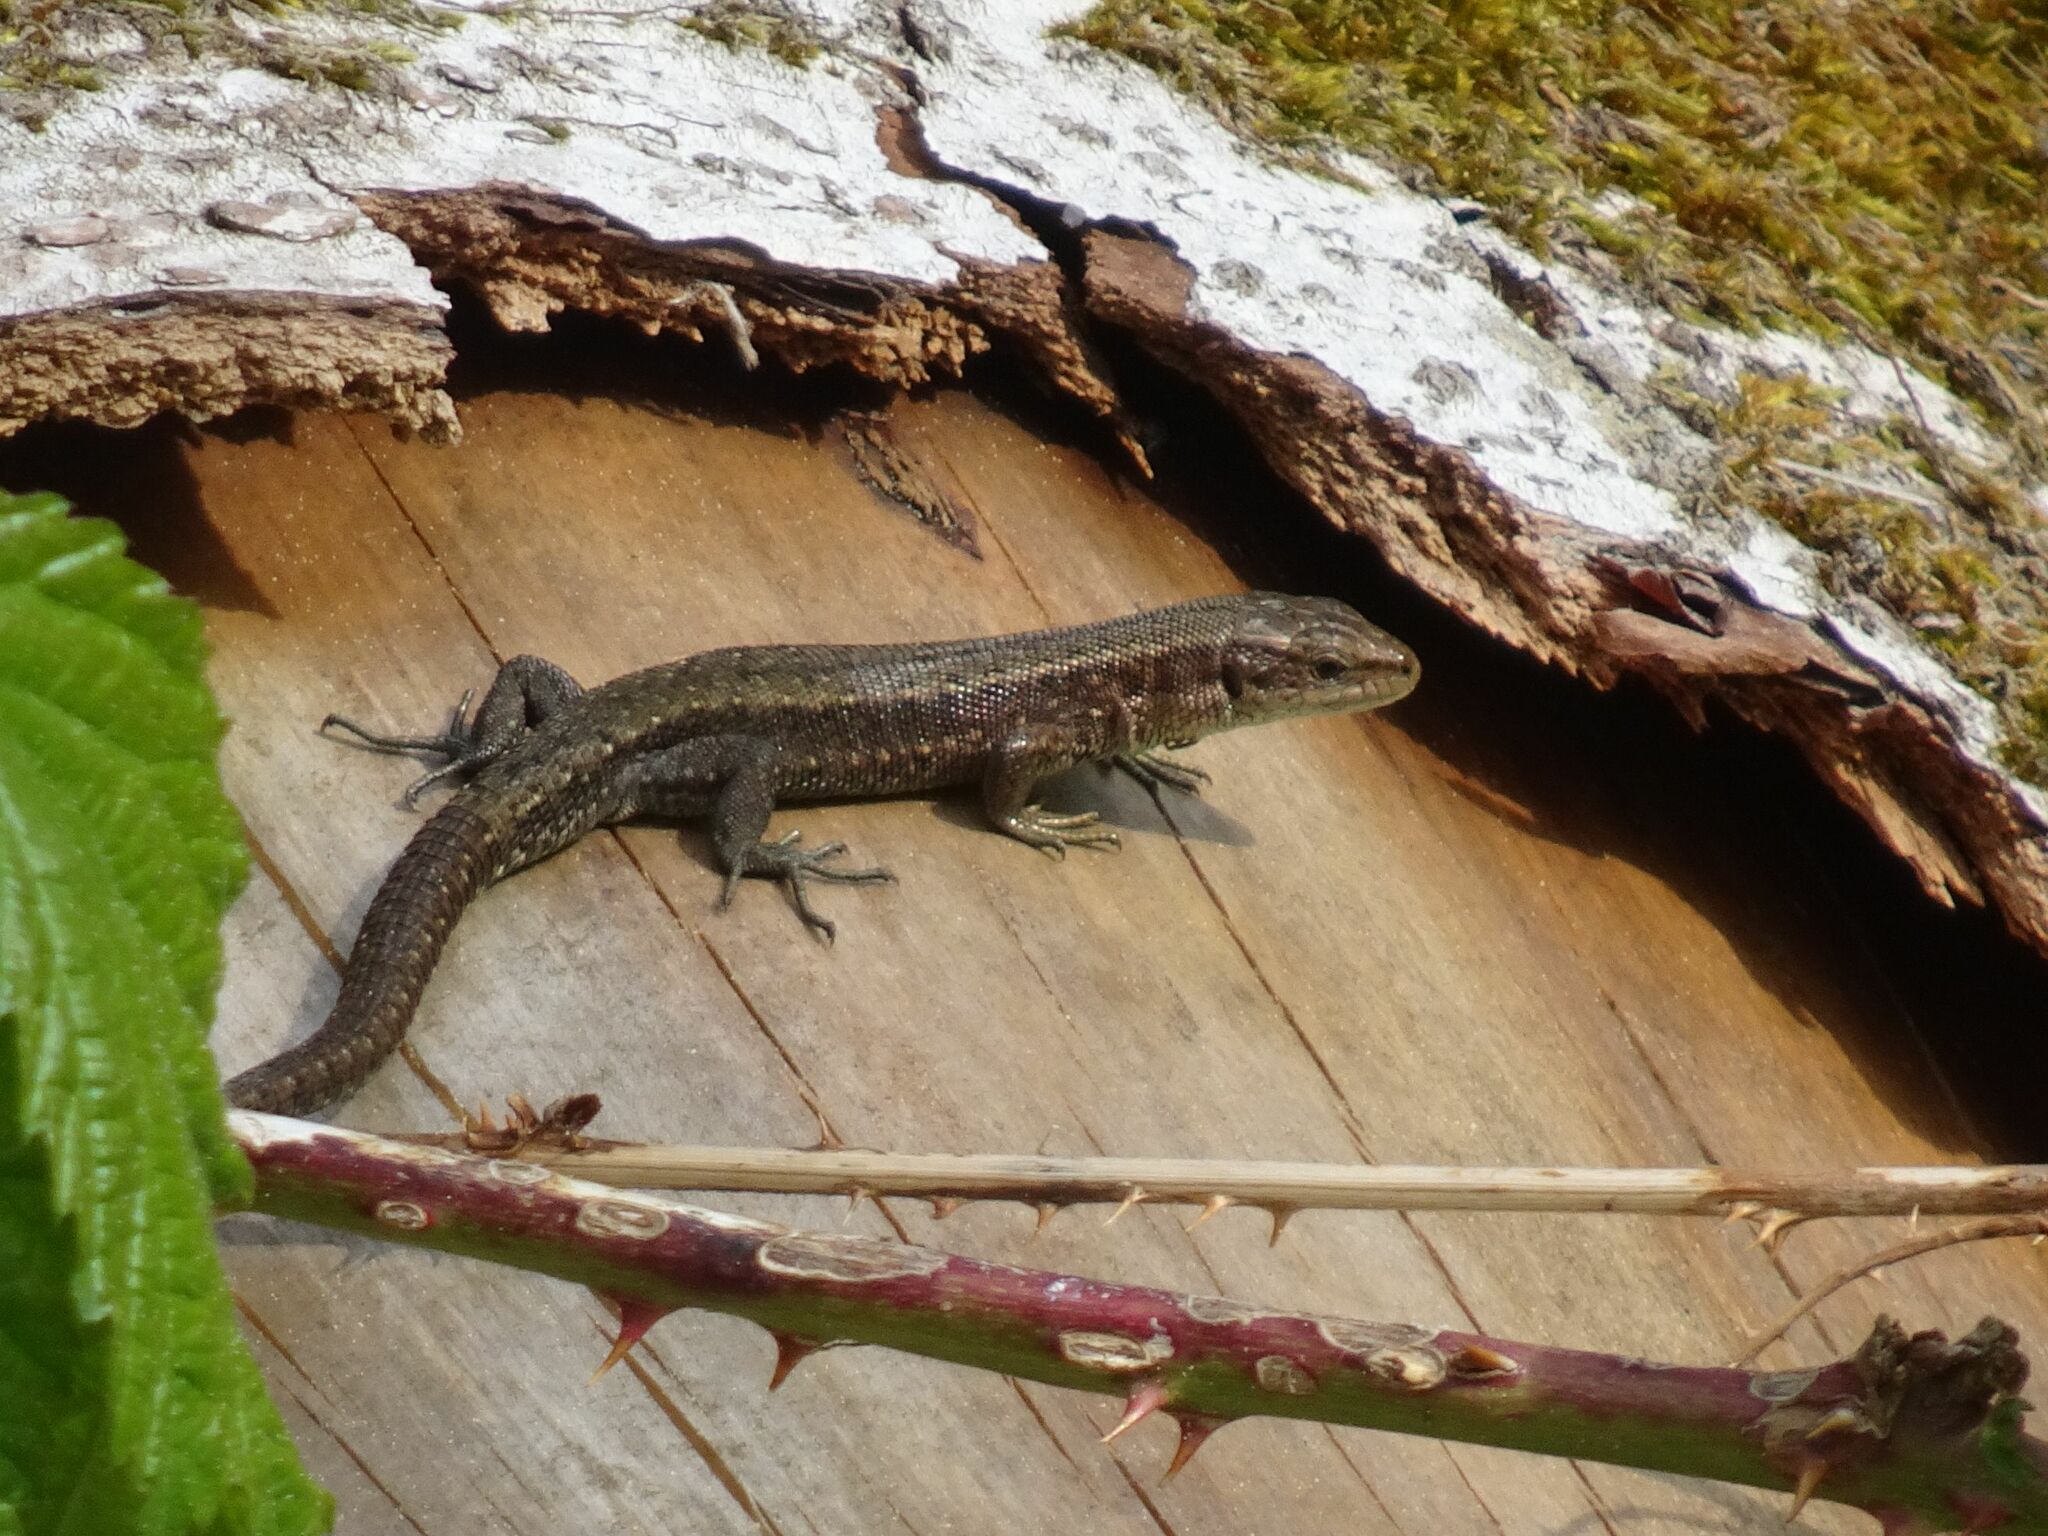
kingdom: Animalia
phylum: Chordata
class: Squamata
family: Lacertidae
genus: Zootoca
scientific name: Zootoca vivipara
